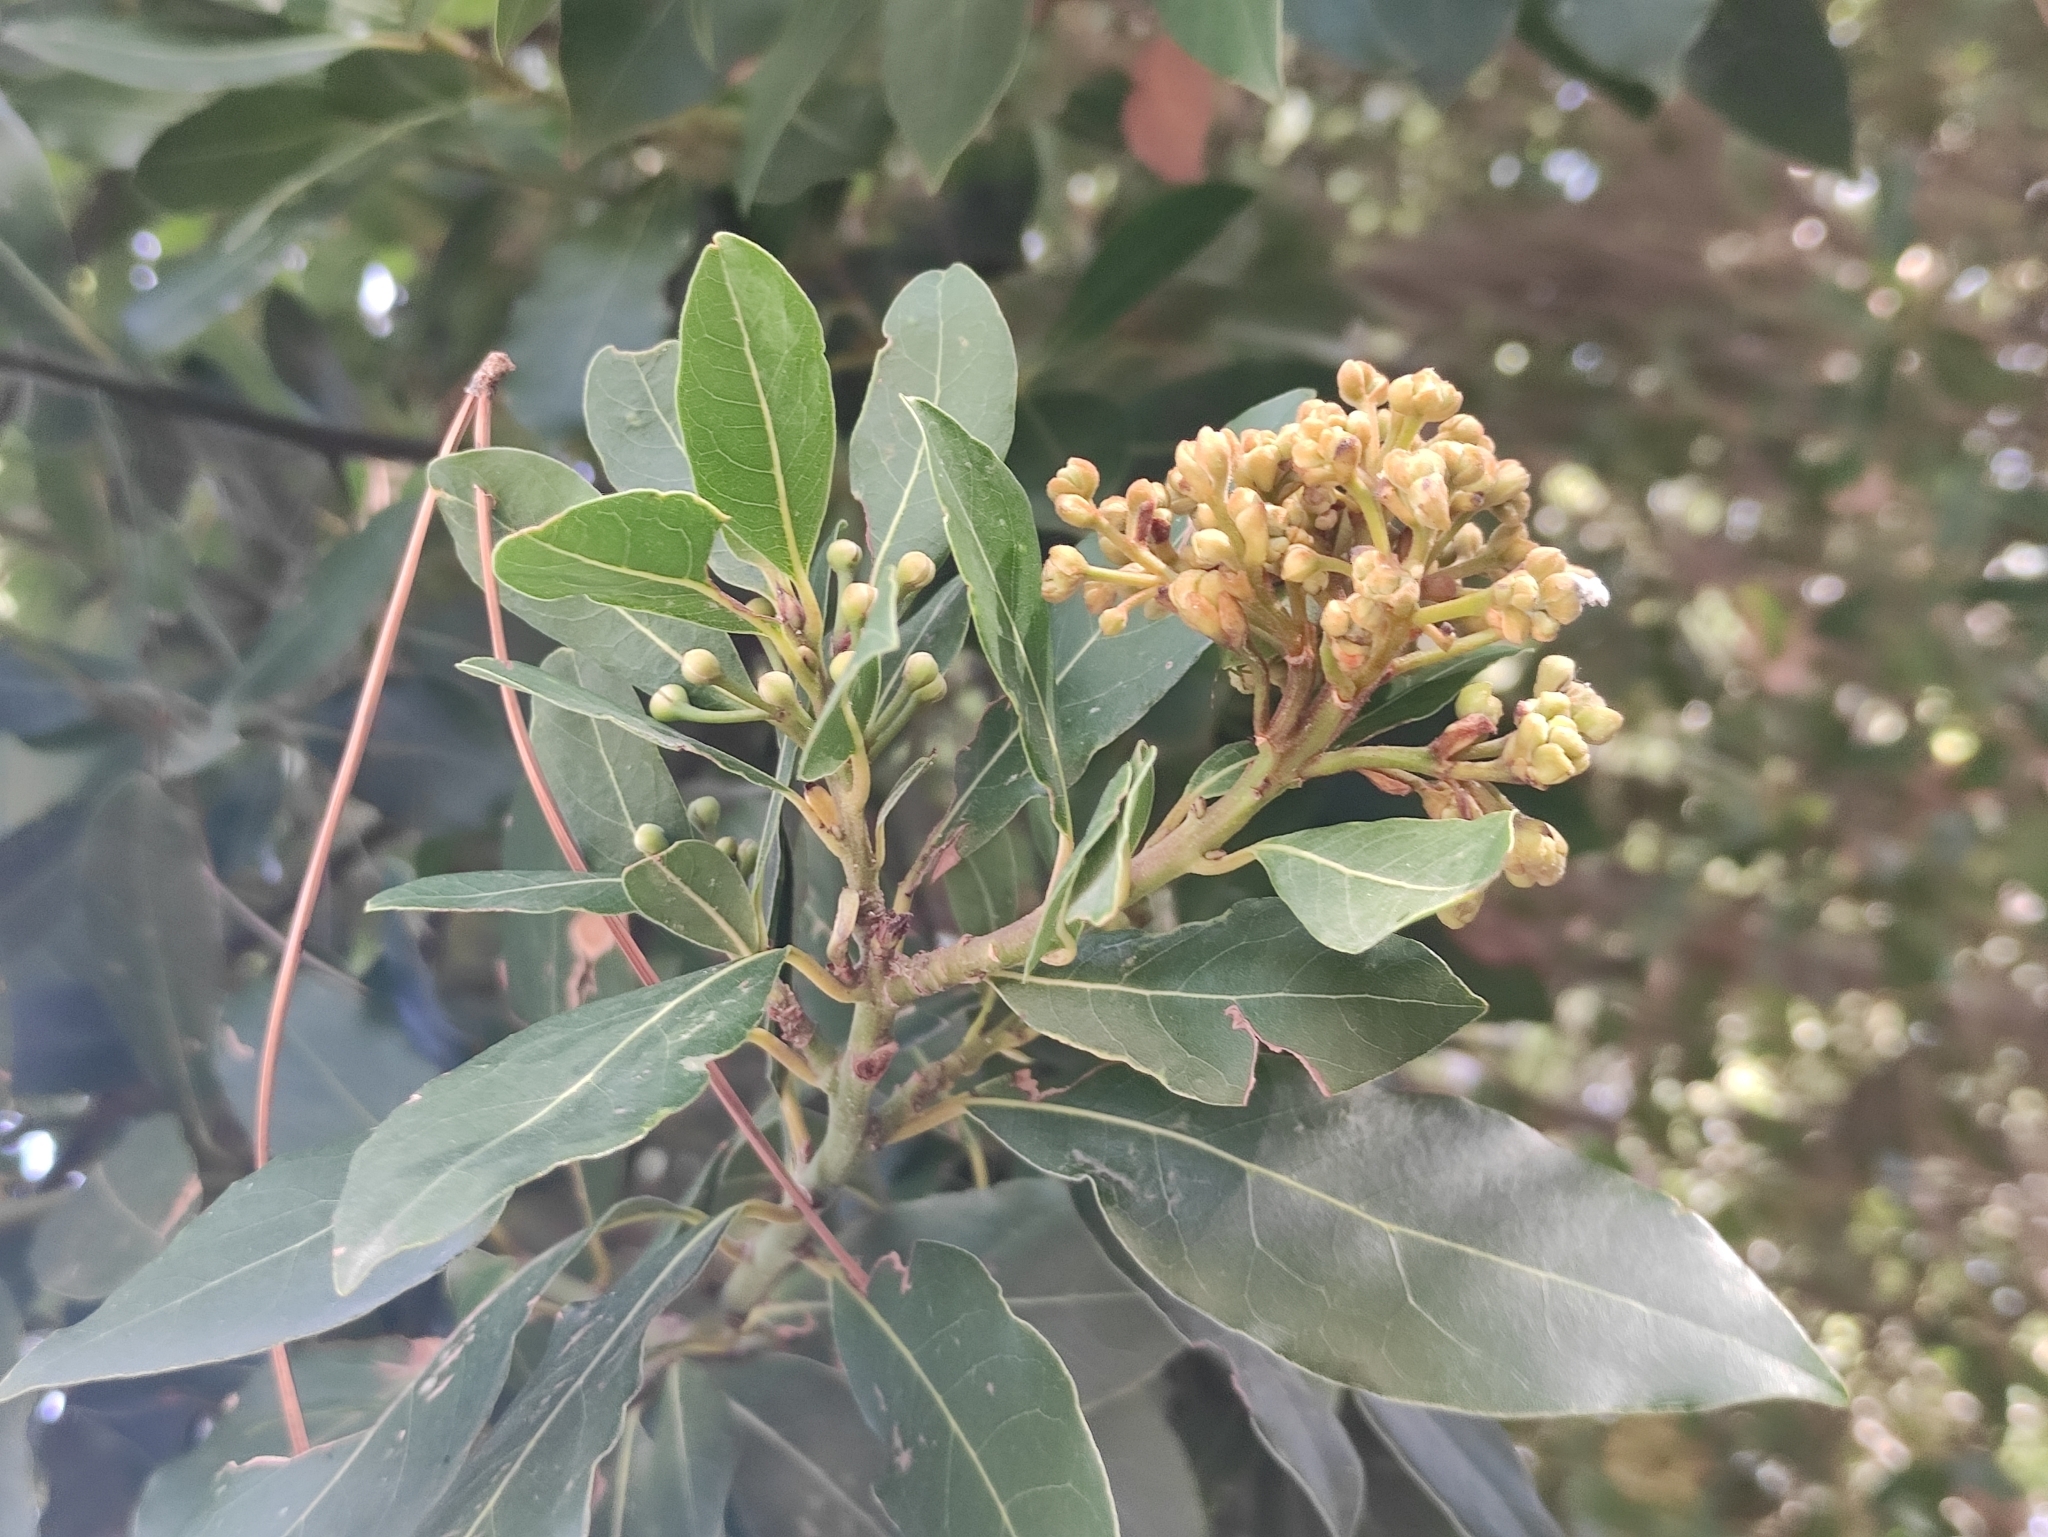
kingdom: Plantae
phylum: Tracheophyta
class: Magnoliopsida
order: Laurales
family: Lauraceae
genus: Laurus
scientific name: Laurus nobilis
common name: Bay
